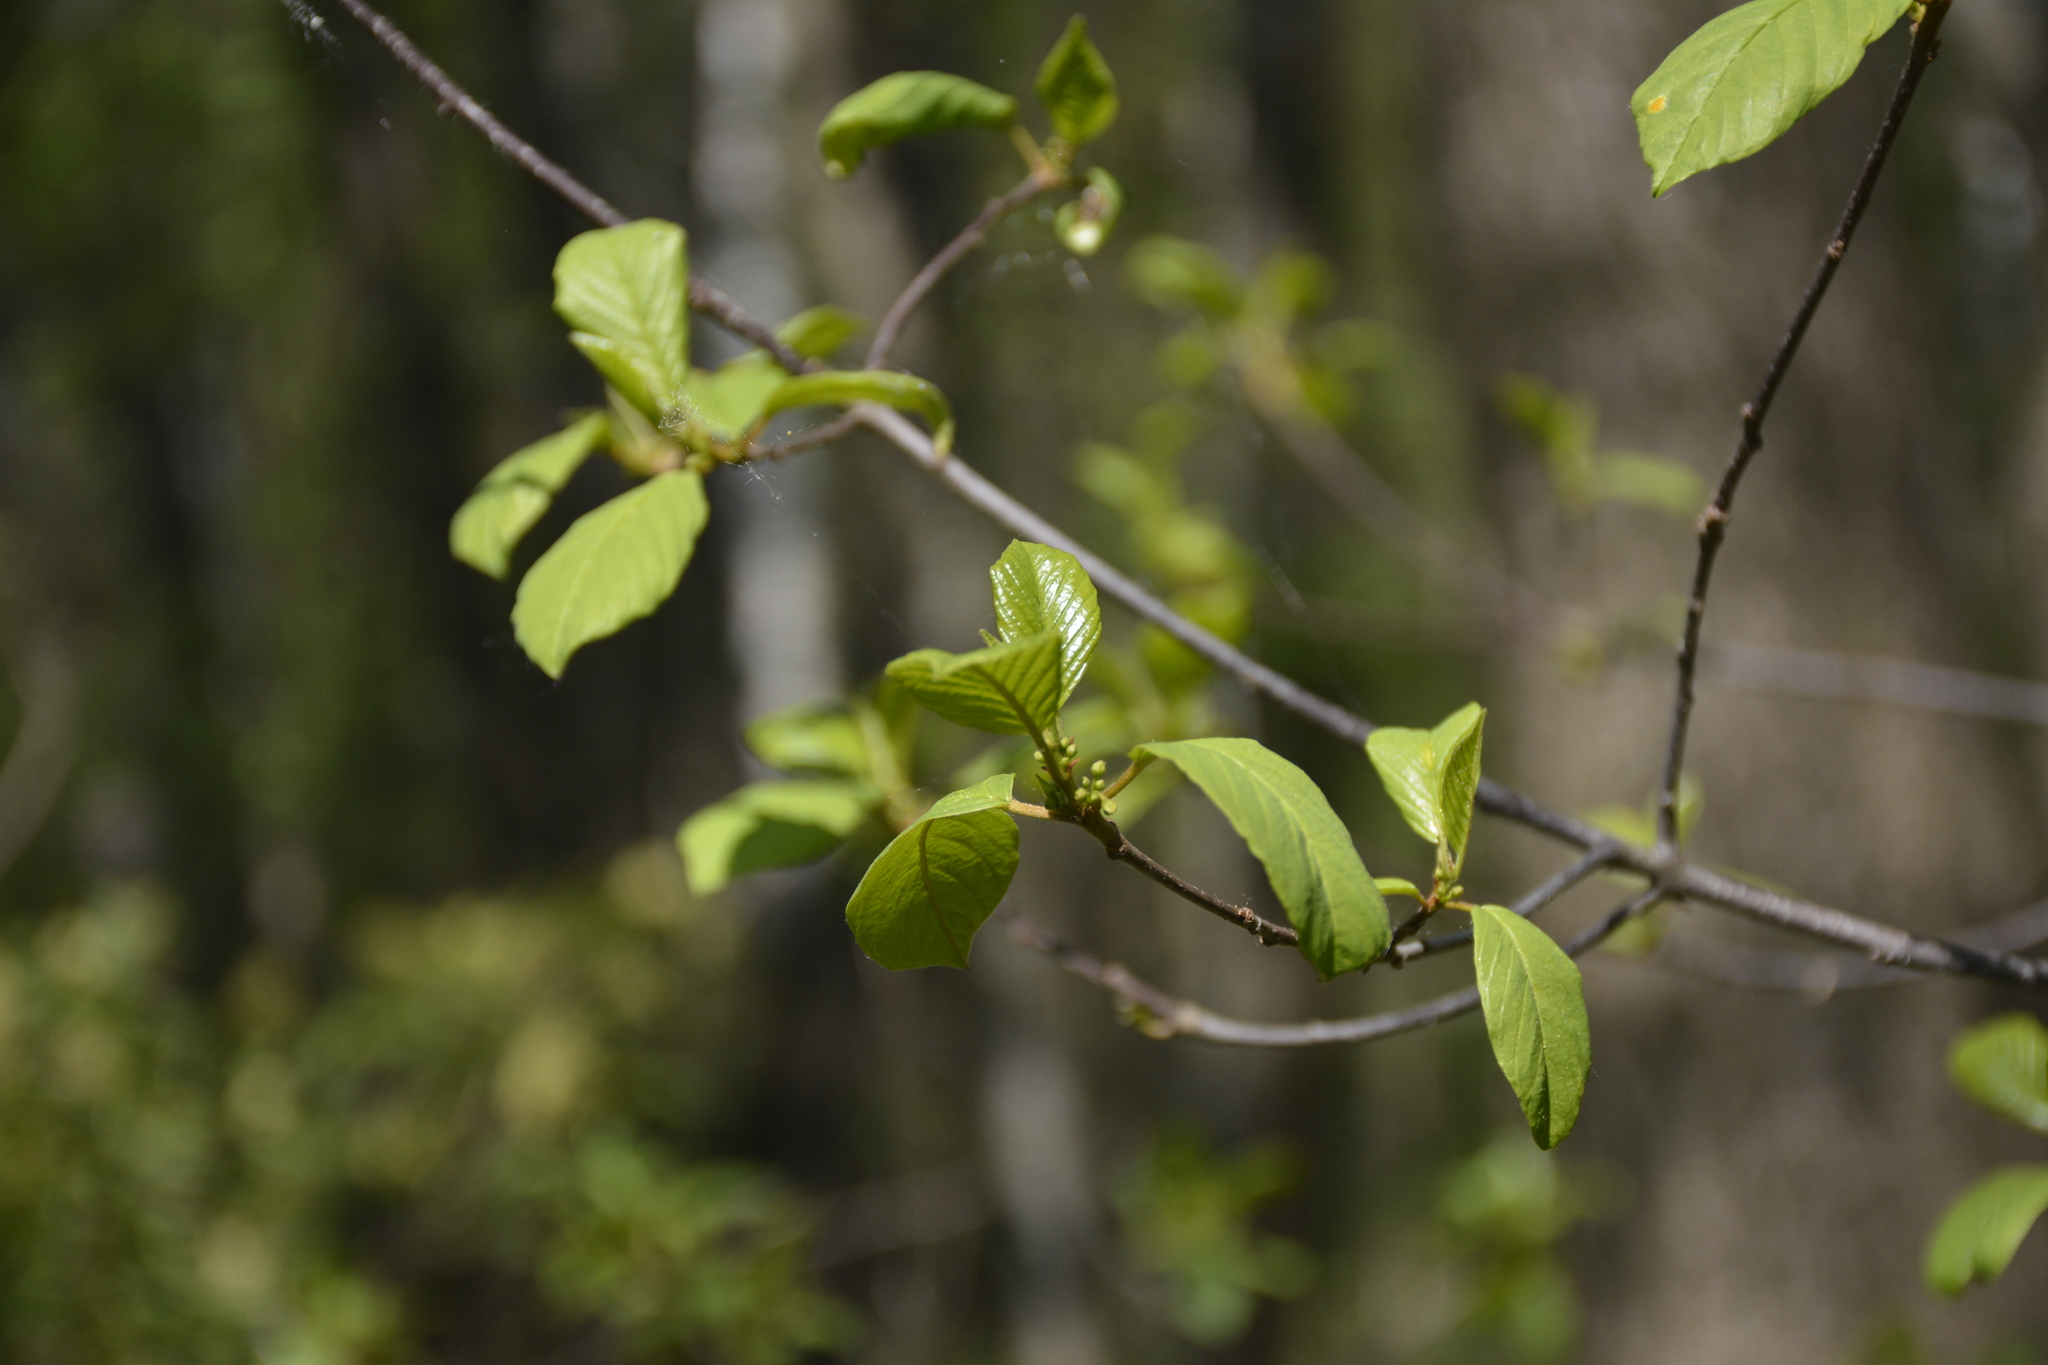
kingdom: Plantae
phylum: Tracheophyta
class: Magnoliopsida
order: Rosales
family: Rhamnaceae
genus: Frangula
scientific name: Frangula alnus
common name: Alder buckthorn
